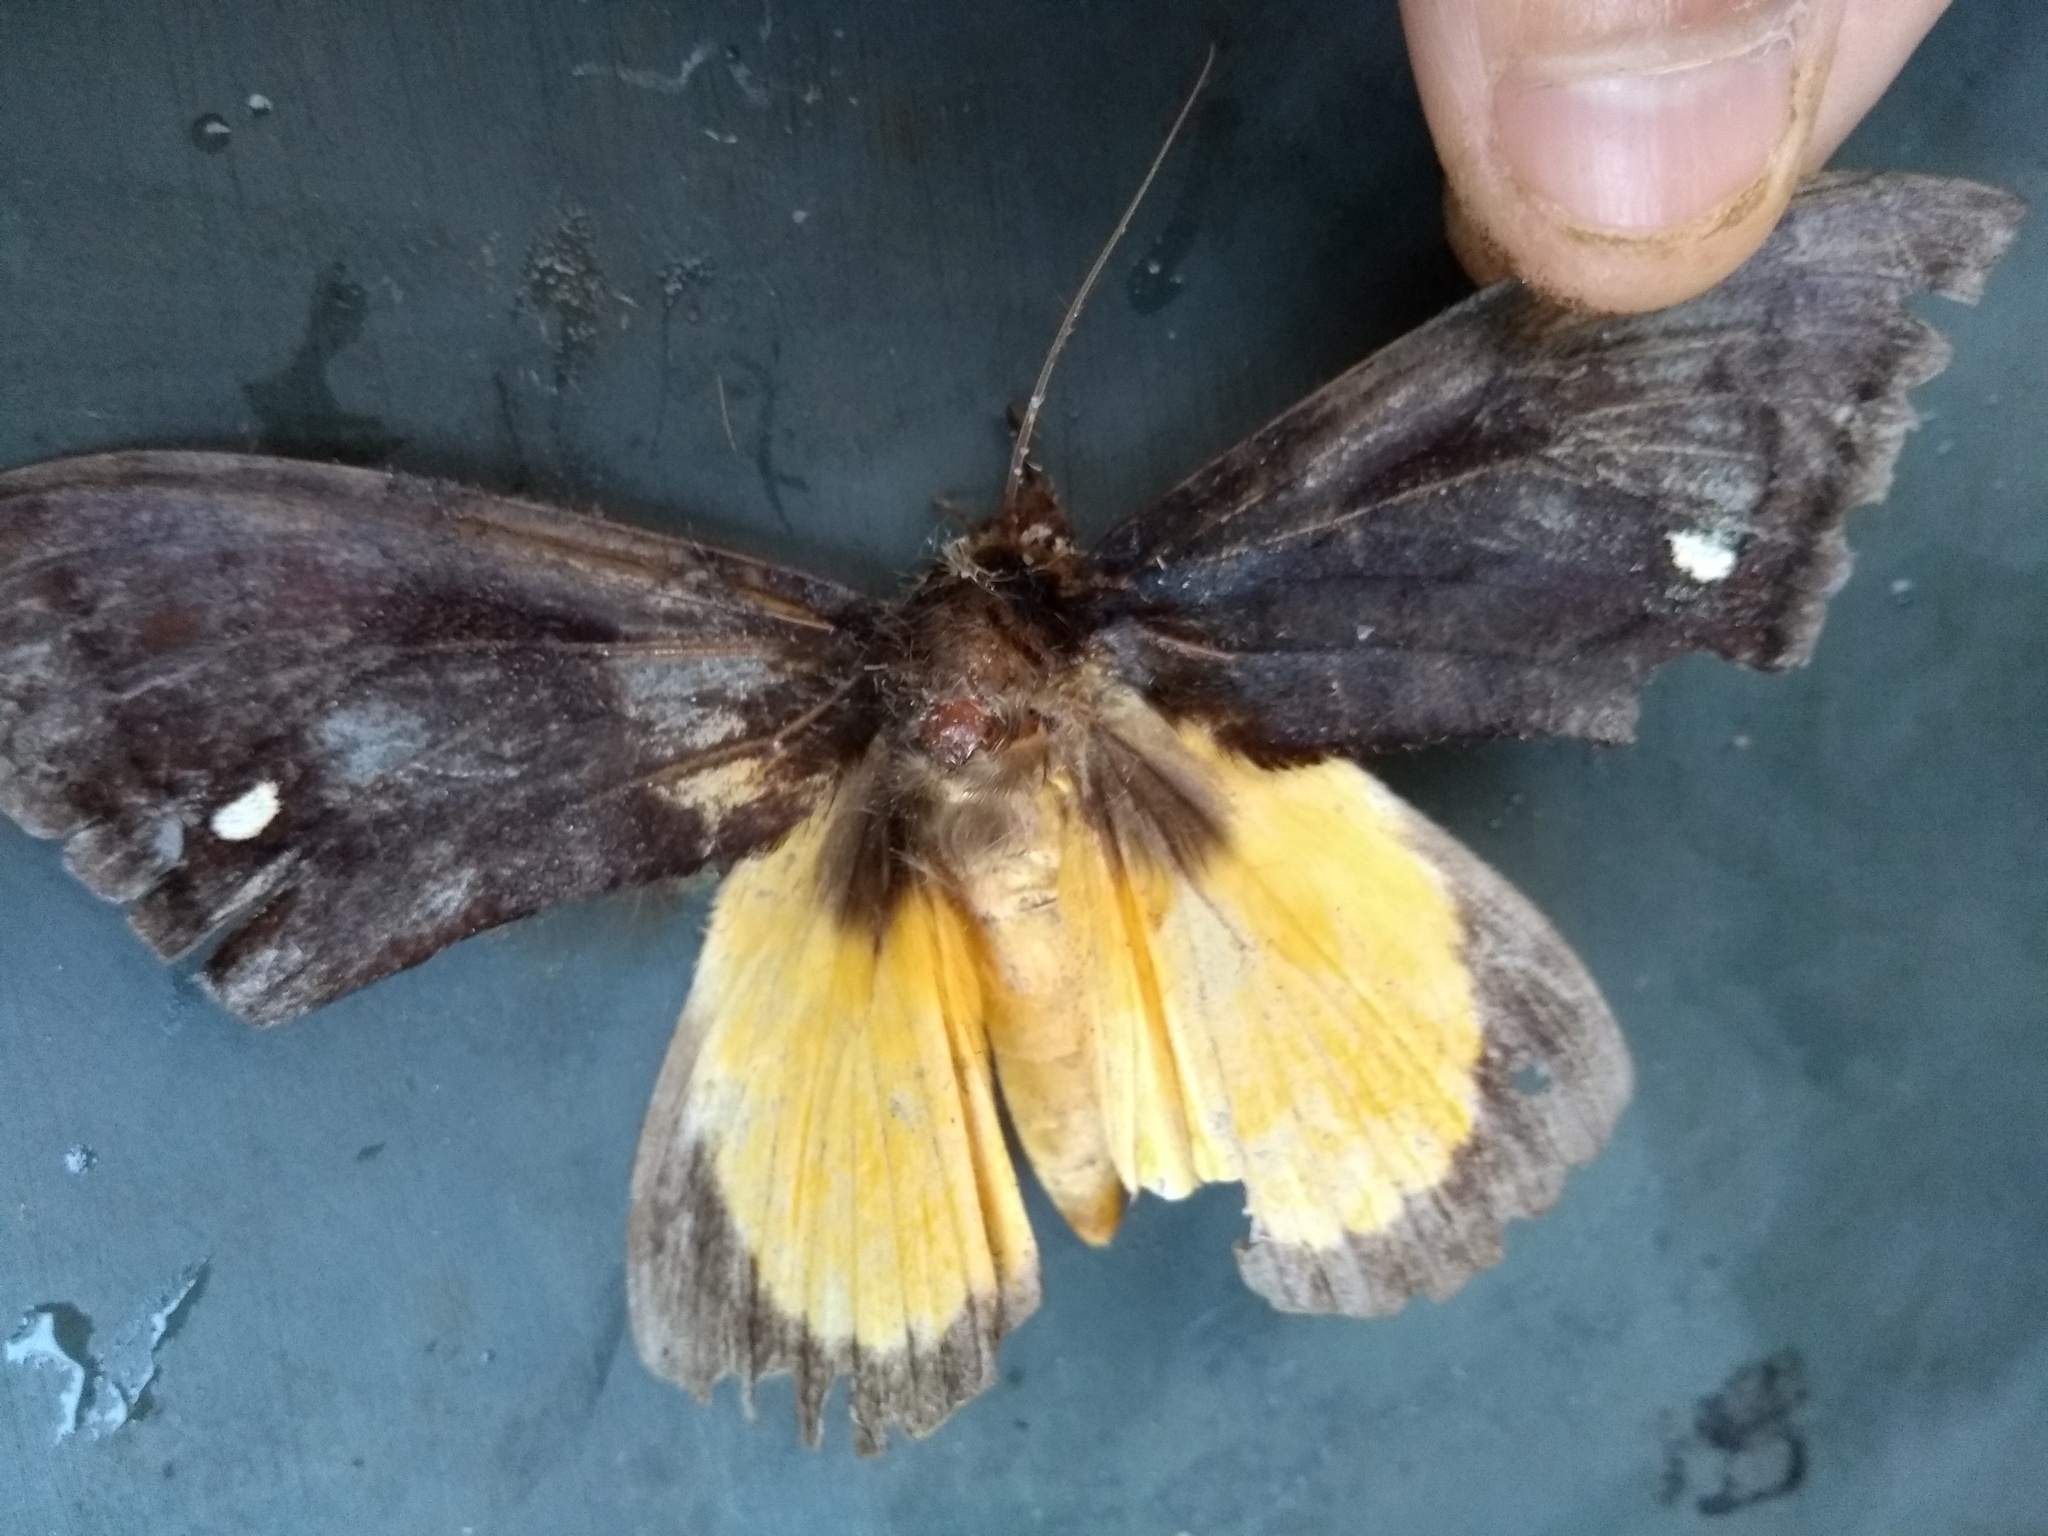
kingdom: Animalia
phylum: Arthropoda
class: Insecta
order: Lepidoptera
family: Erebidae
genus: Graphigona
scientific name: Graphigona regina
